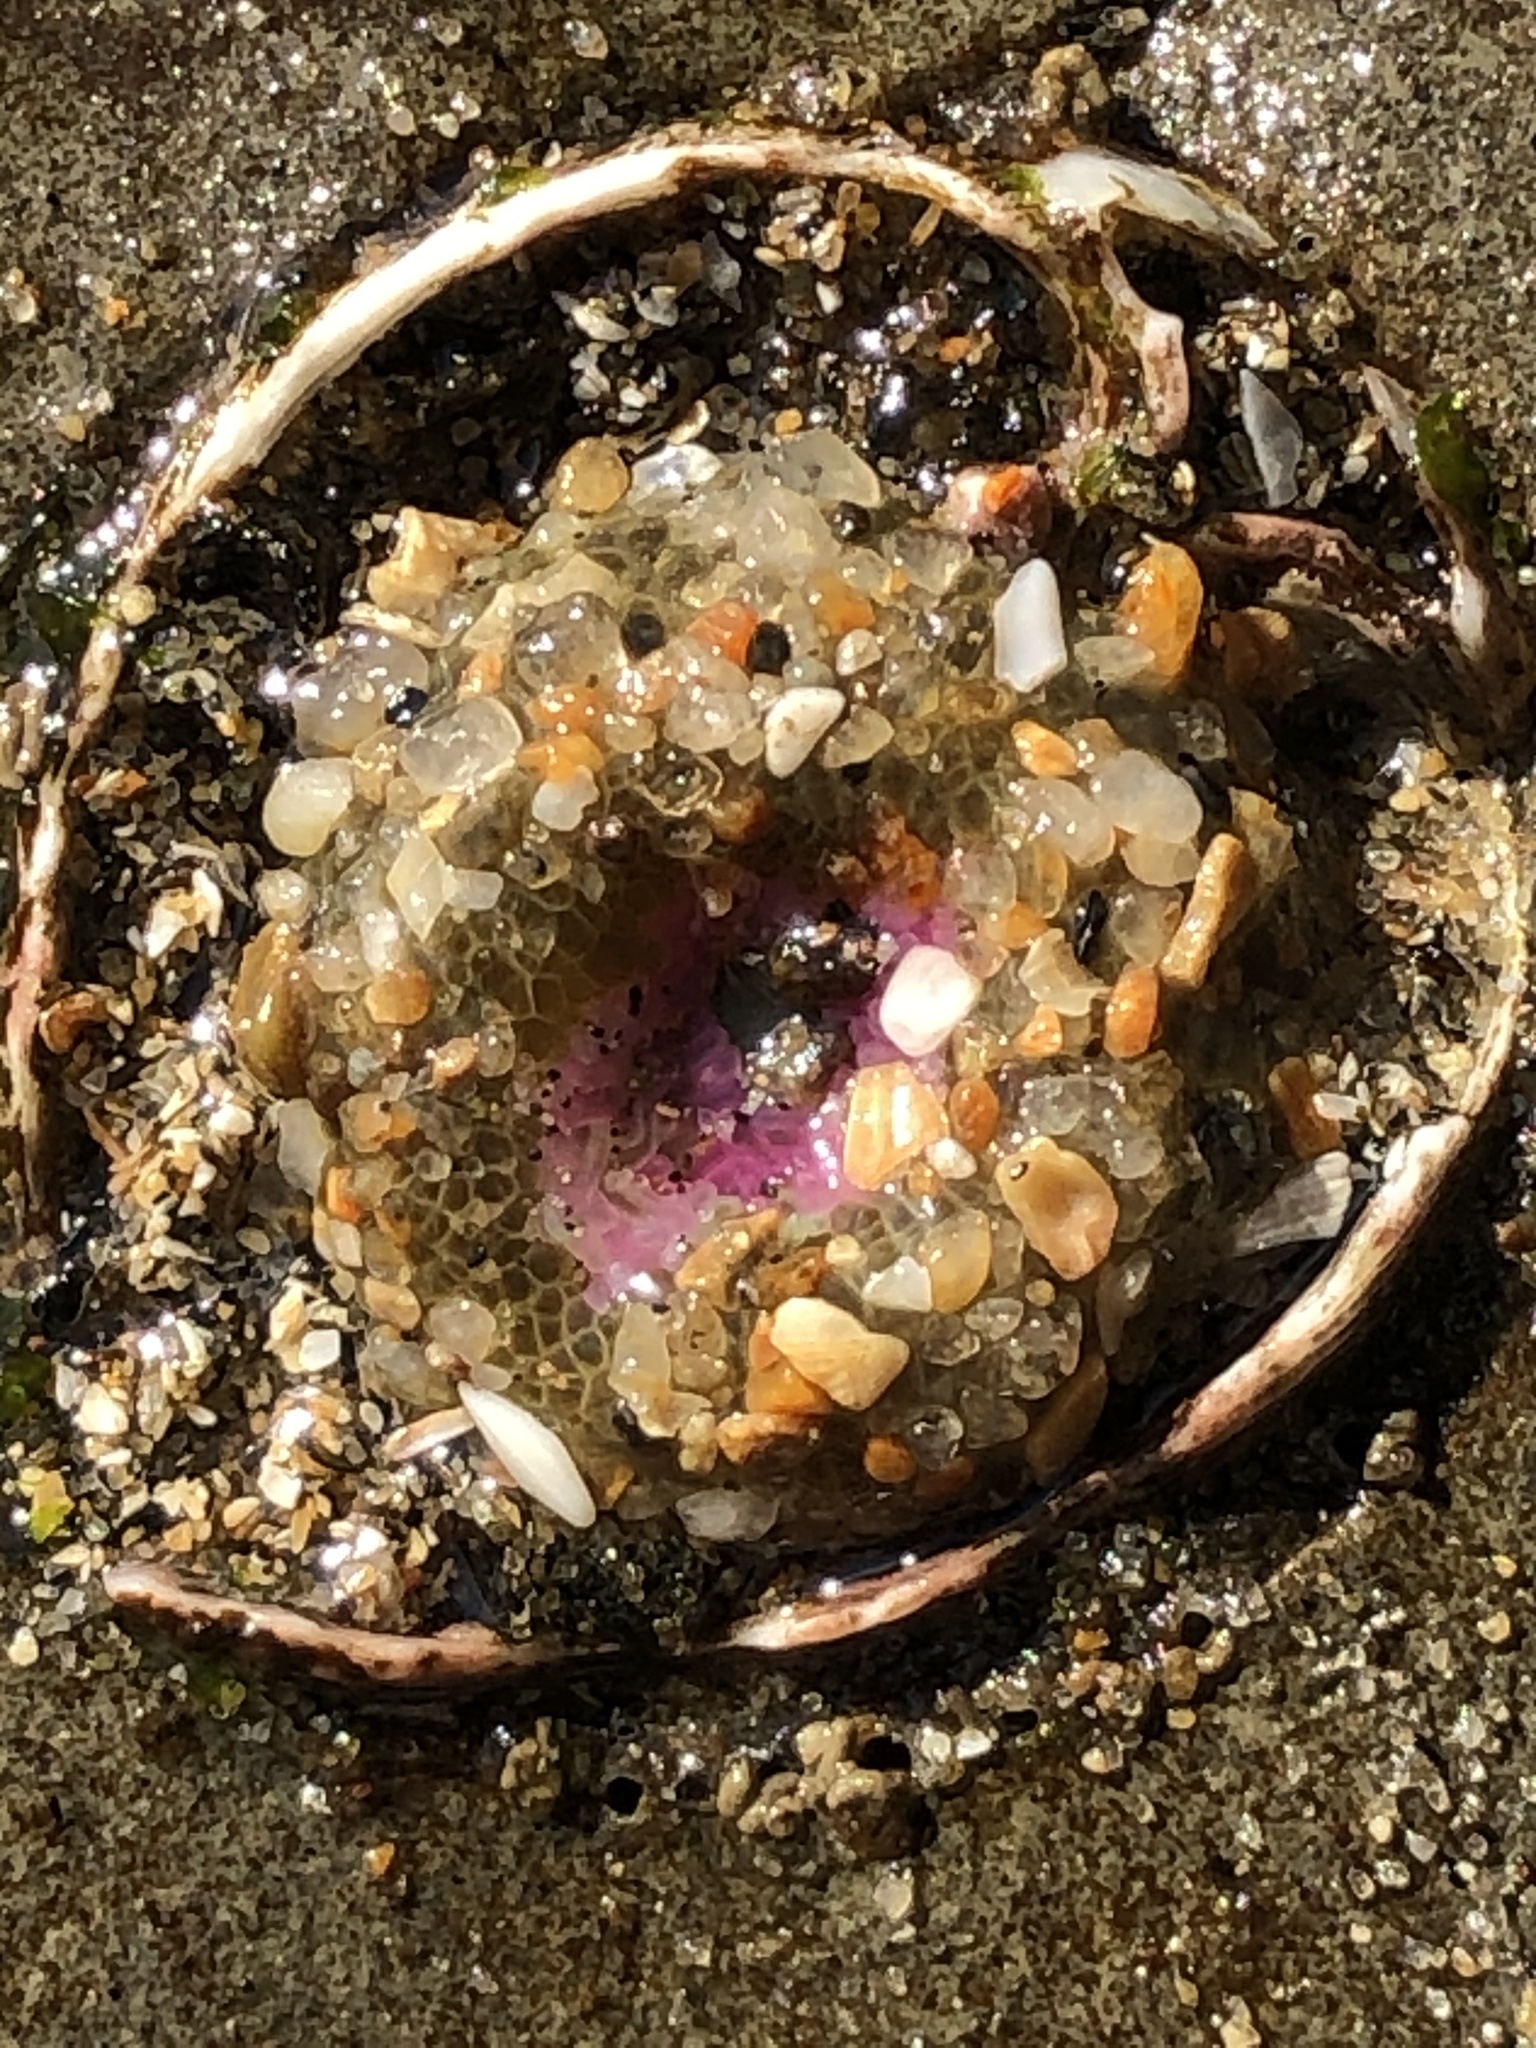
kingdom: Animalia
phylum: Cnidaria
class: Anthozoa
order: Actiniaria
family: Actiniidae
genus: Anthopleura
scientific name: Anthopleura elegantissima
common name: Clonal anemone
